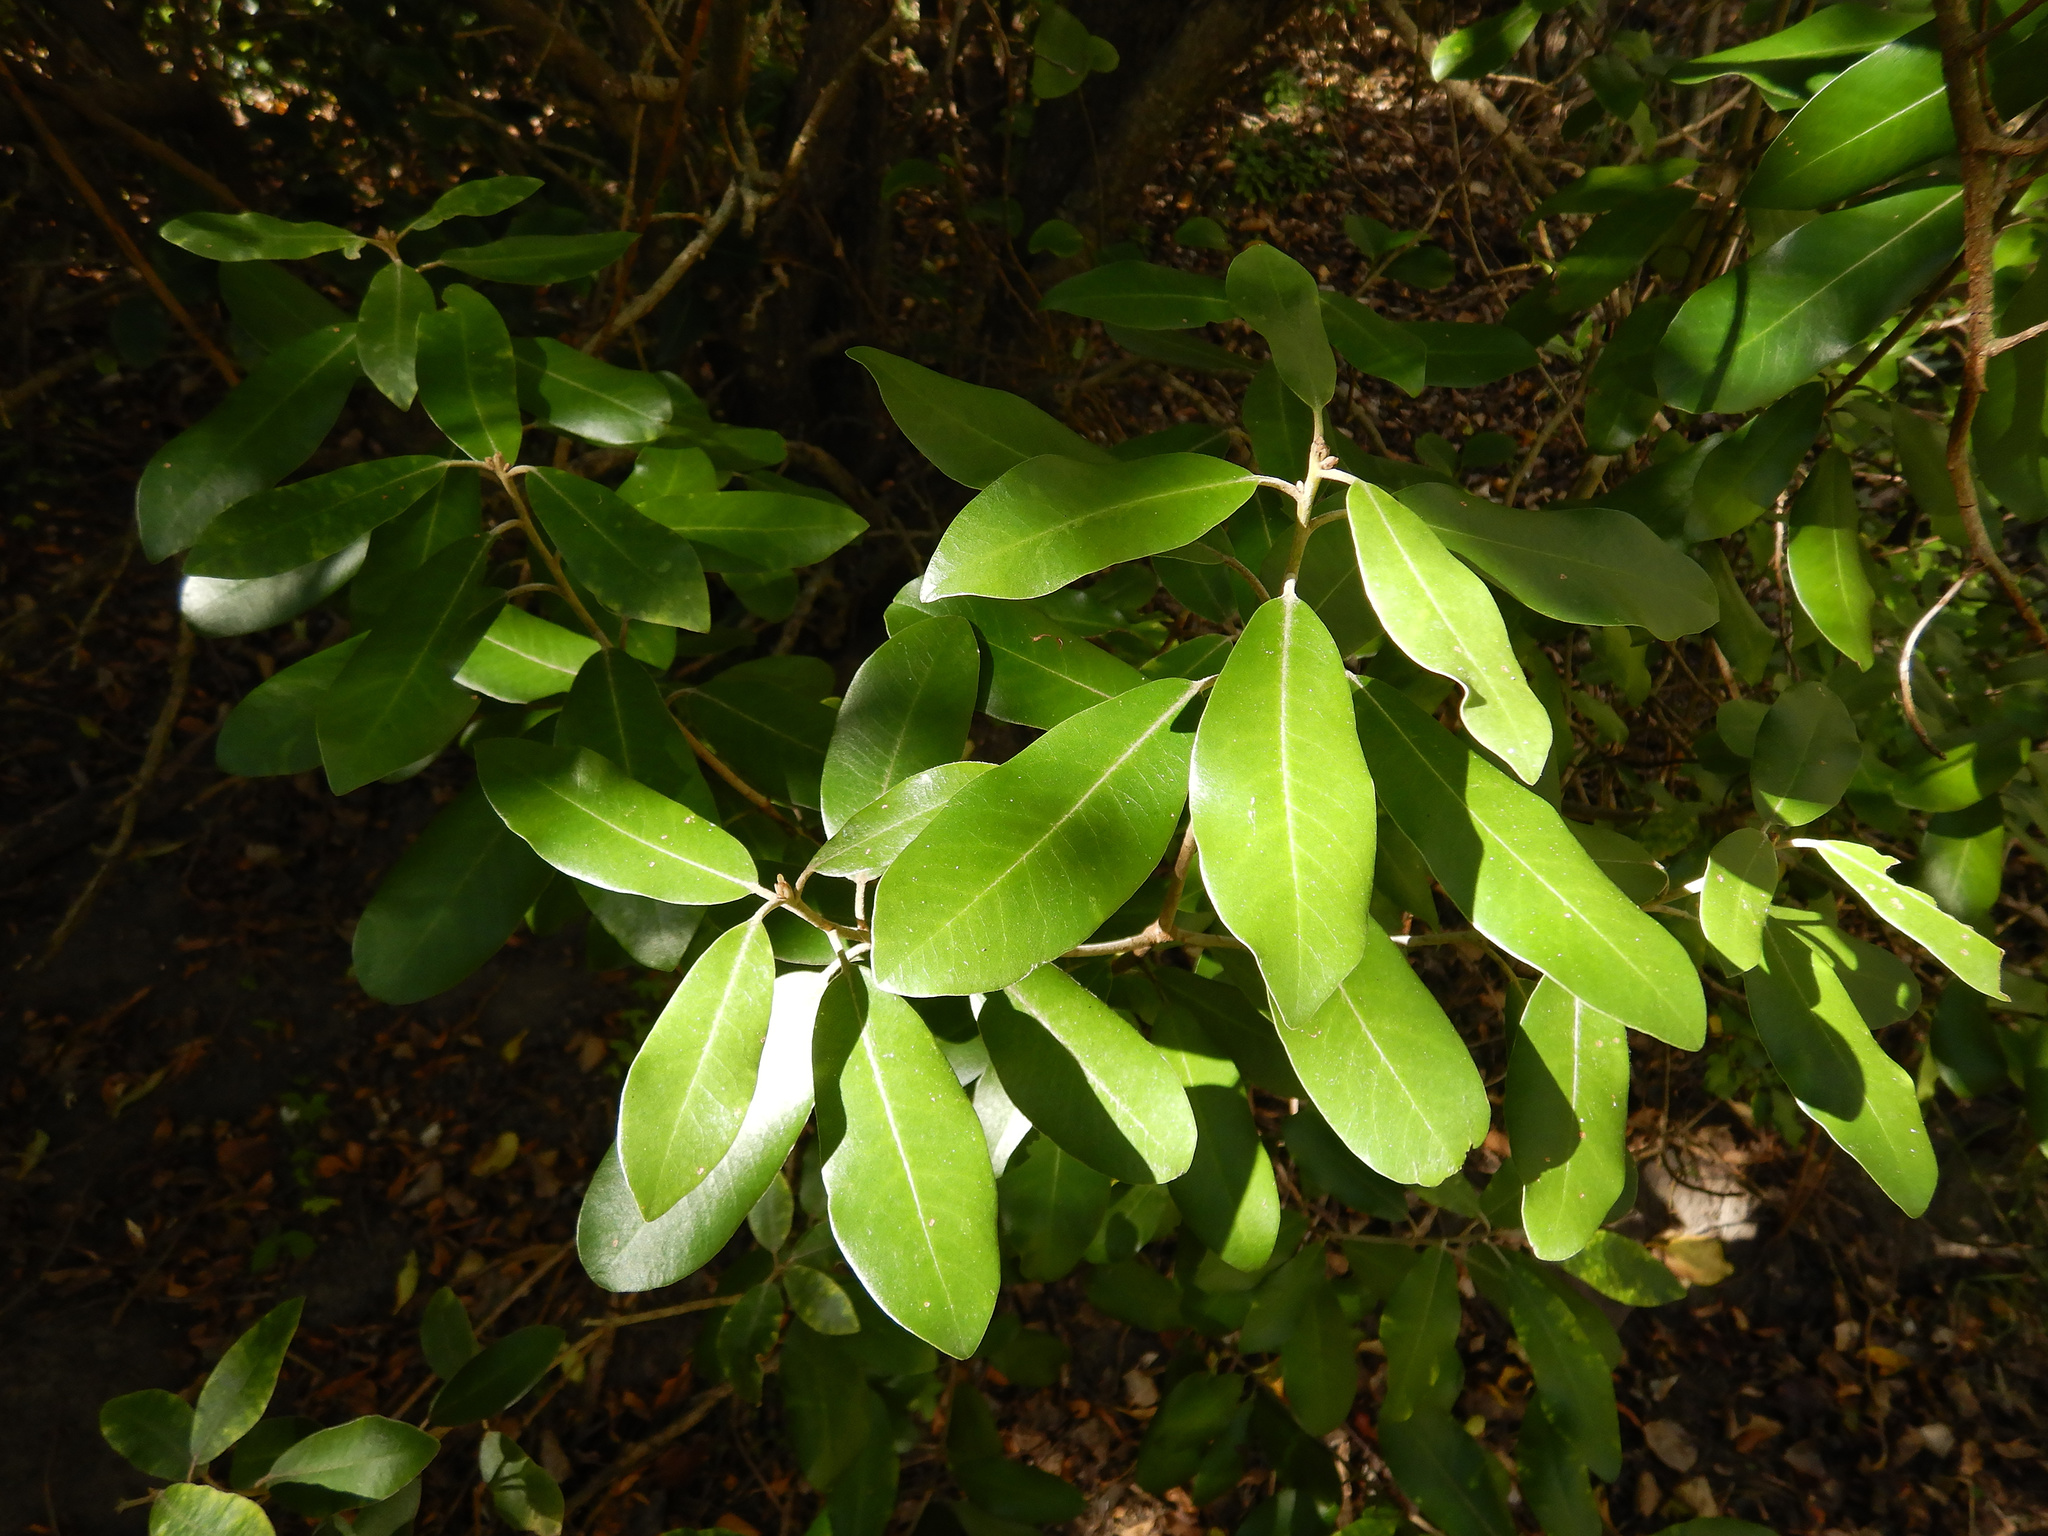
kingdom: Plantae
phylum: Tracheophyta
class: Magnoliopsida
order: Apiales
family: Pittosporaceae
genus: Pittosporum
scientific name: Pittosporum ralphii
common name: Ralph's desertwillow
